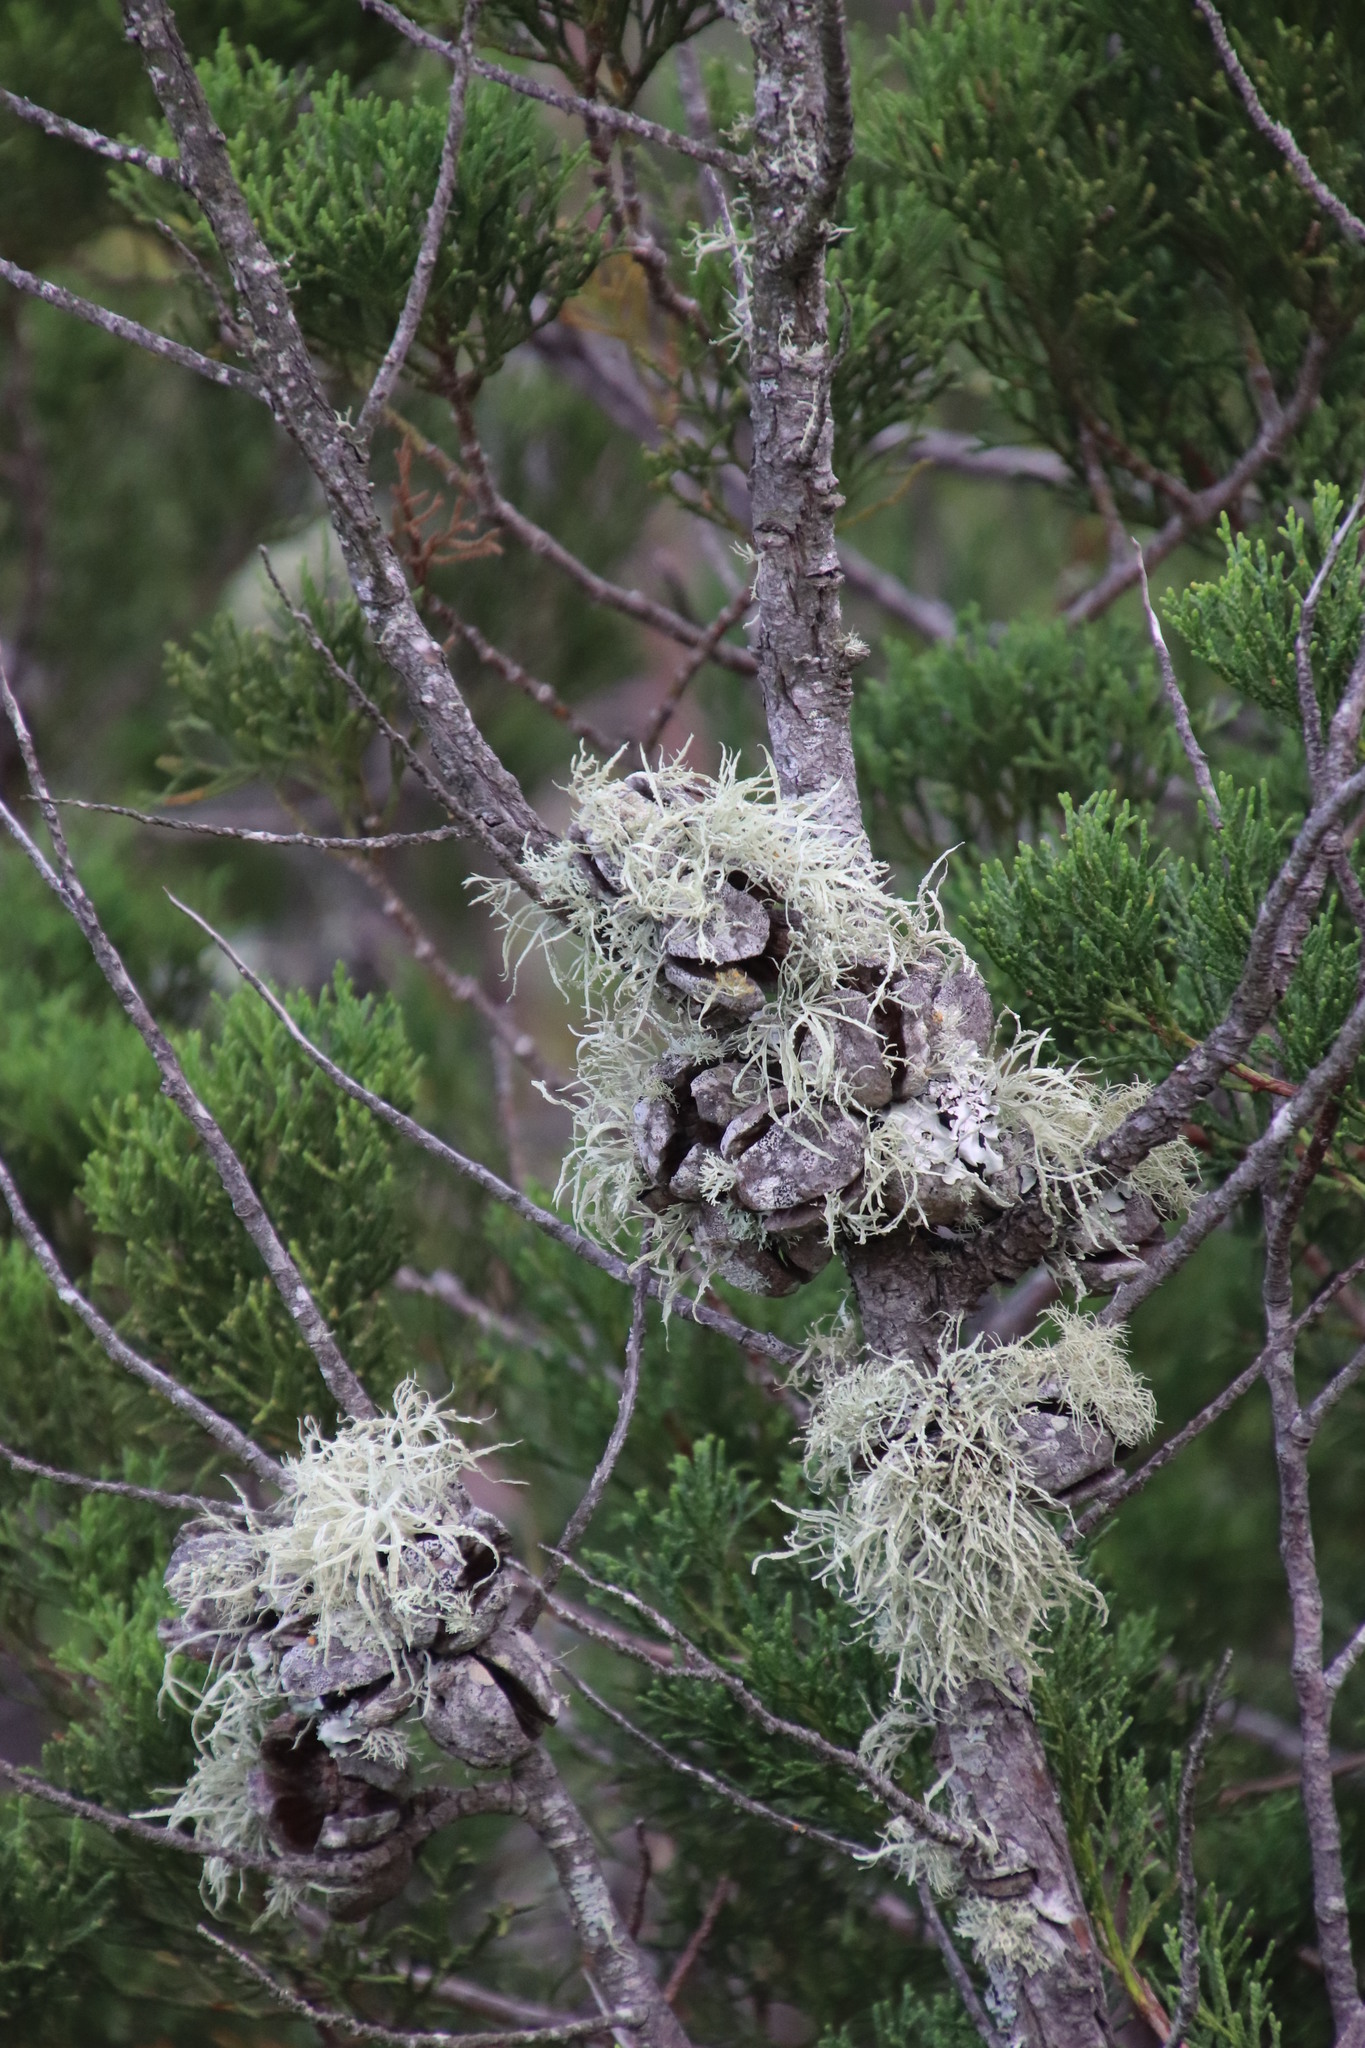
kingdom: Plantae
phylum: Tracheophyta
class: Pinopsida
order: Pinales
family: Cupressaceae
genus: Widdringtonia
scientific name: Widdringtonia nodiflora
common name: Cape cypress
